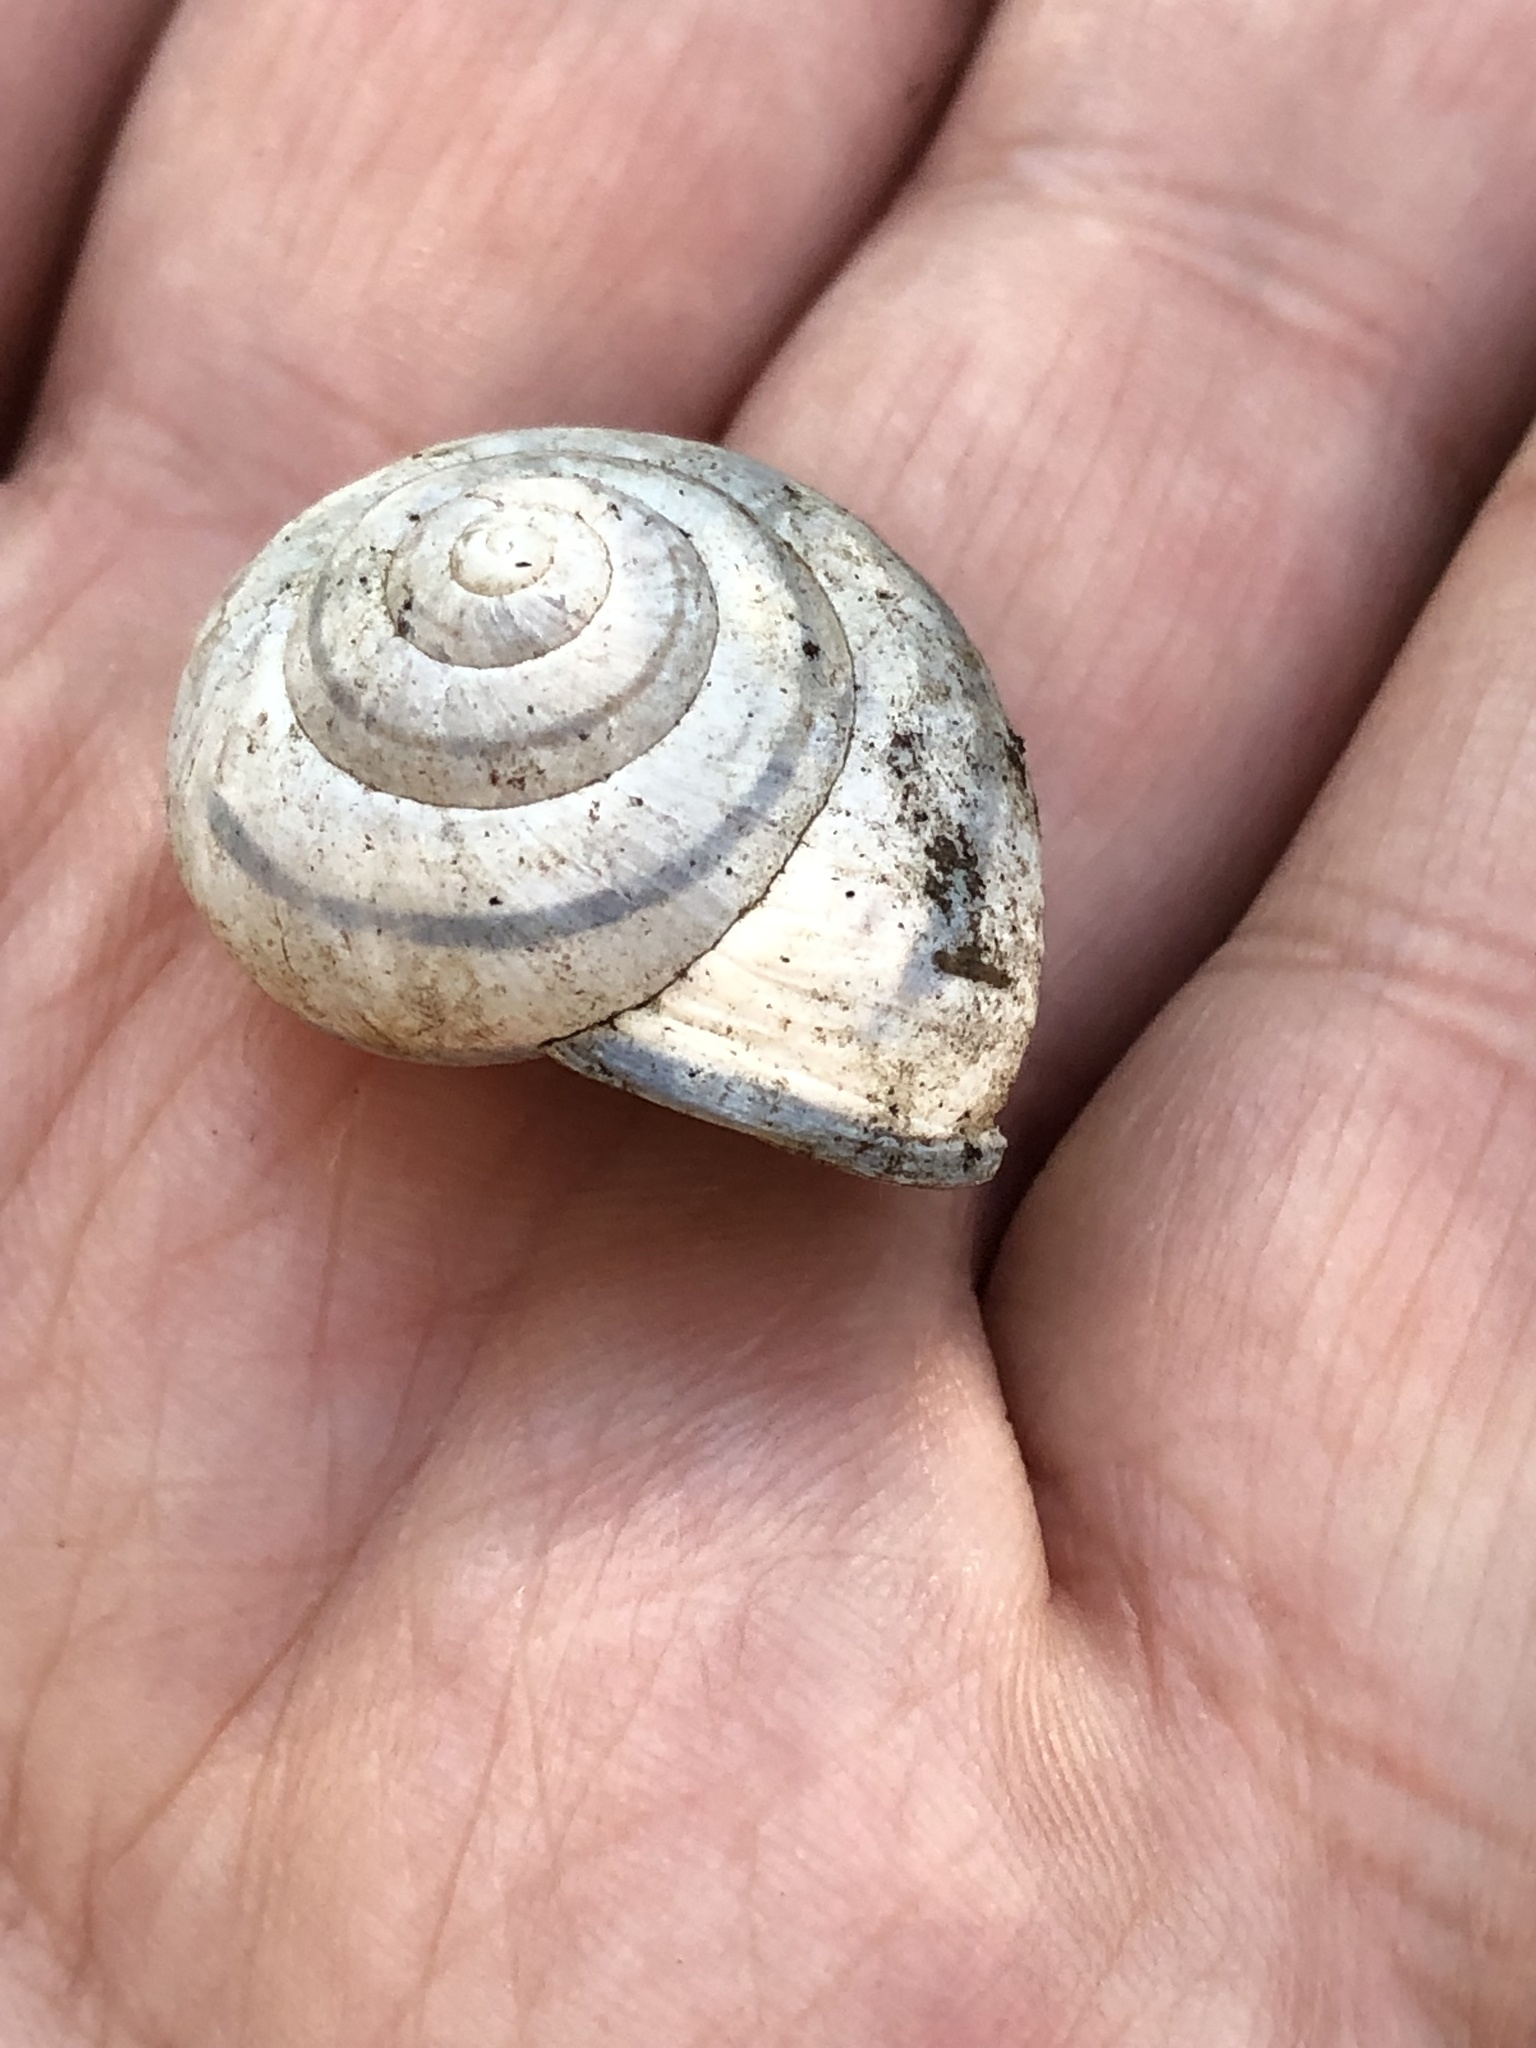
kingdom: Animalia
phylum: Mollusca
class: Gastropoda
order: Stylommatophora
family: Helicidae
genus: Cepaea
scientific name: Cepaea nemoralis
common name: Grovesnail
